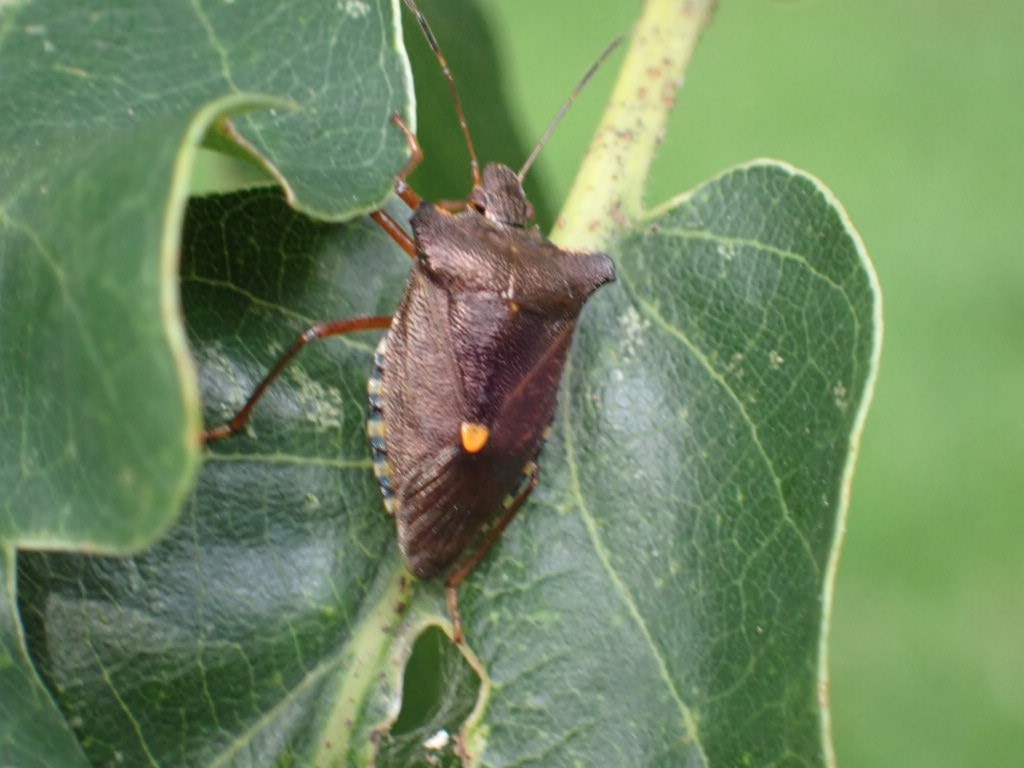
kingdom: Animalia
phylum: Arthropoda
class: Insecta
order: Hemiptera
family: Pentatomidae
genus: Pentatoma
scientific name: Pentatoma rufipes
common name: Forest bug
